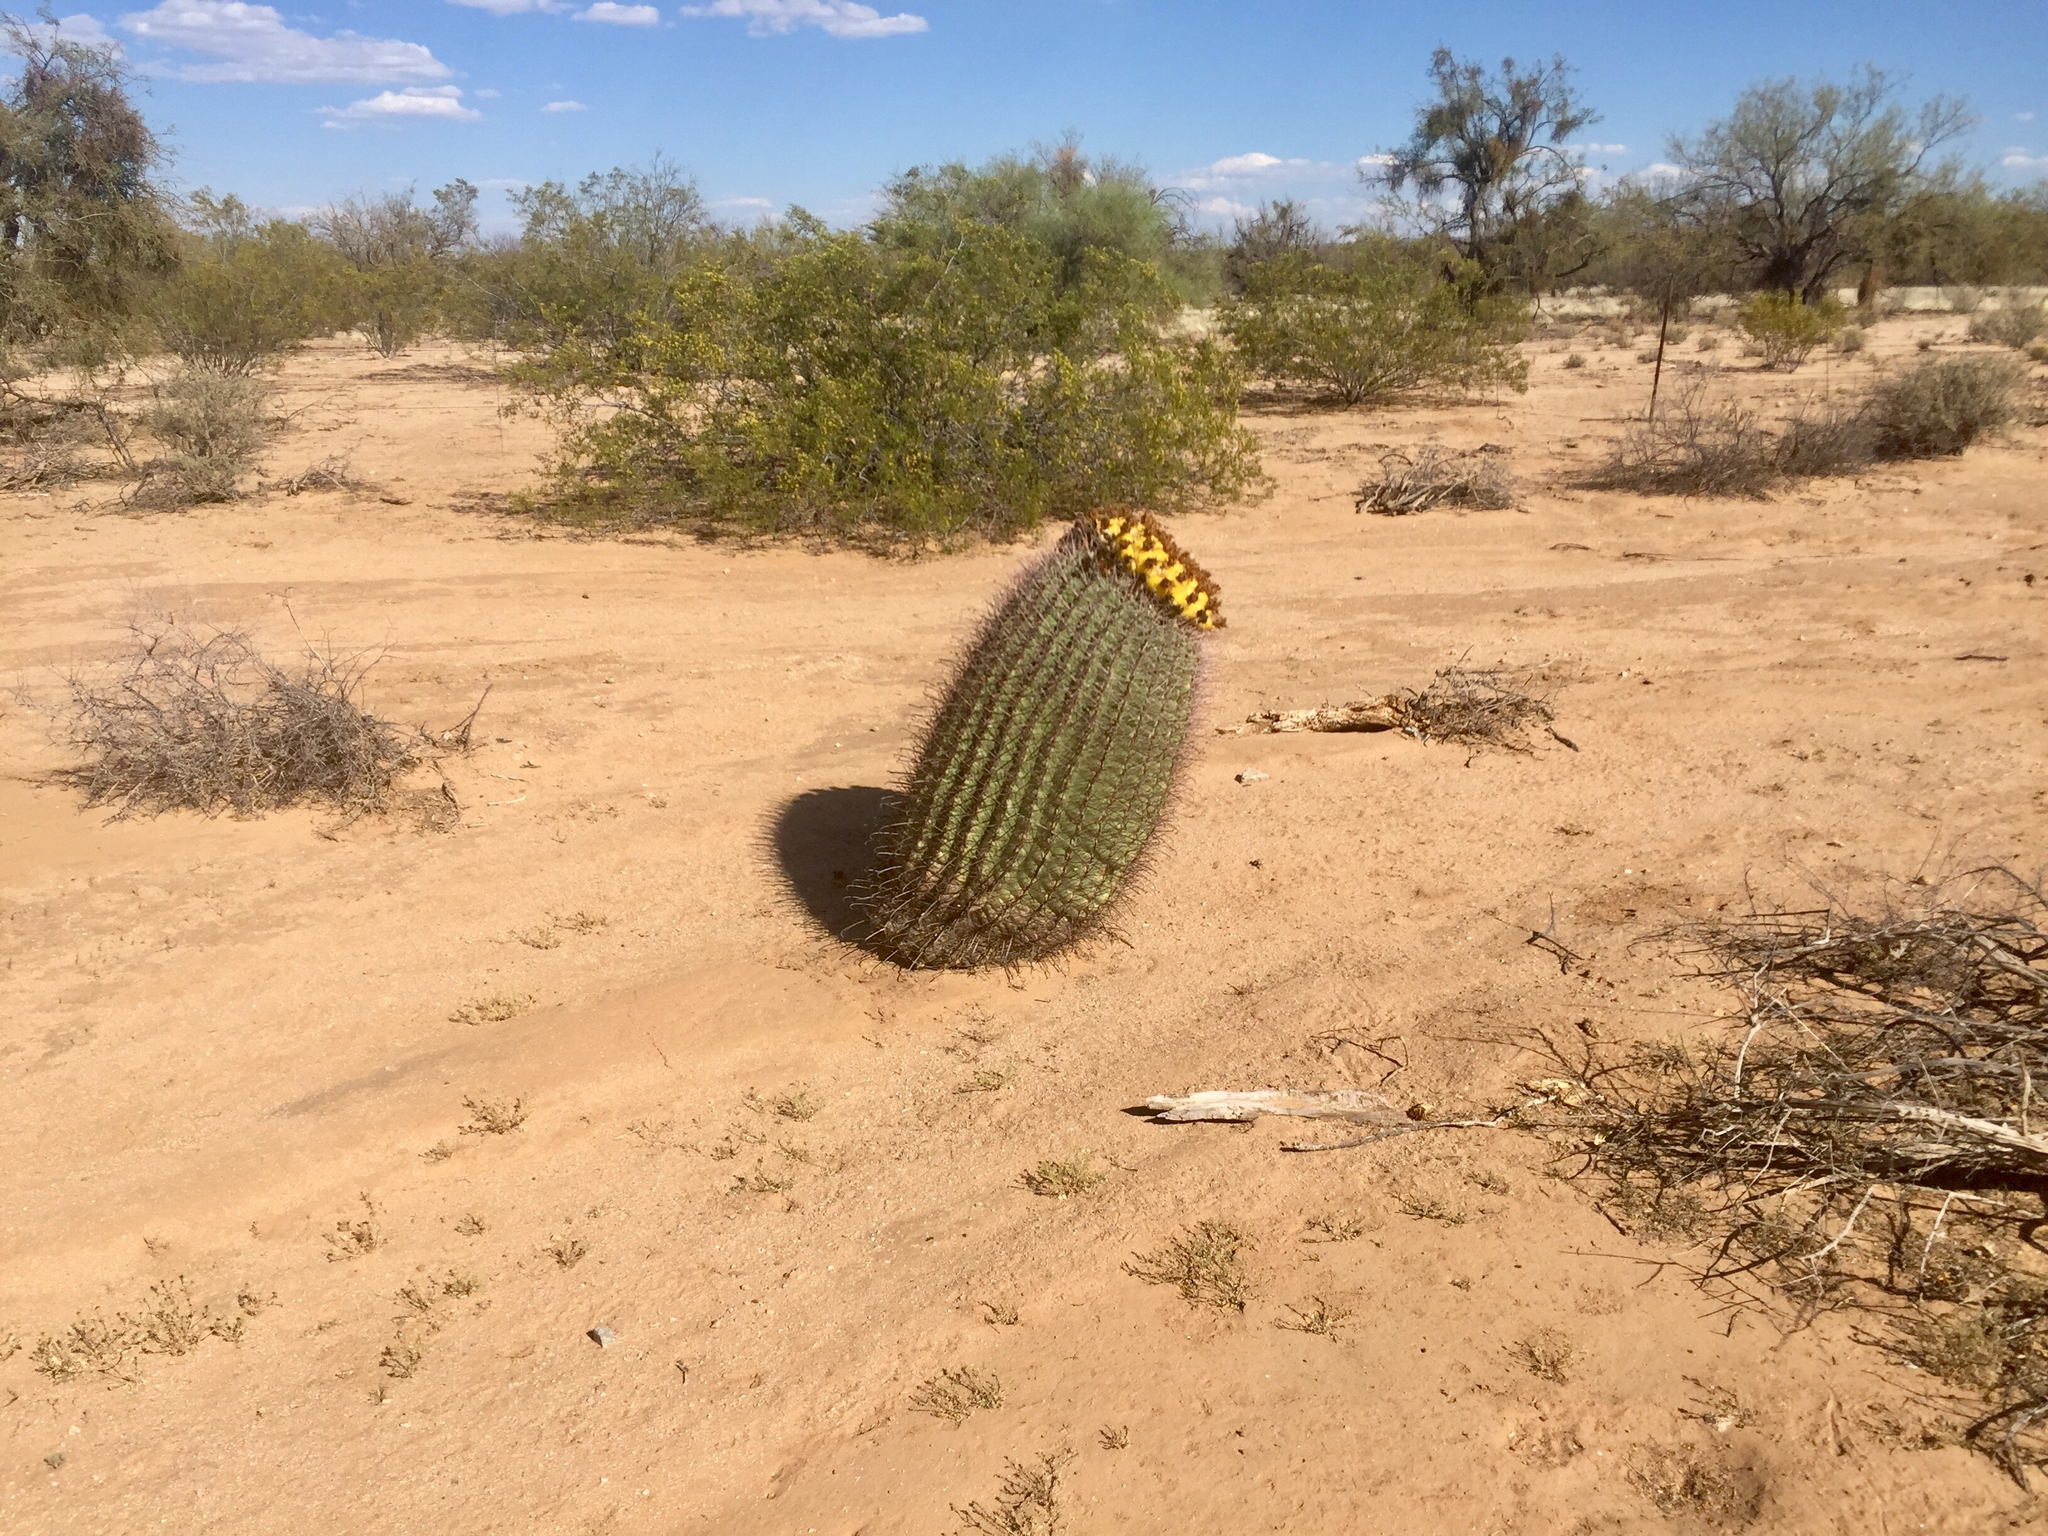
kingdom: Plantae
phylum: Tracheophyta
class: Magnoliopsida
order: Caryophyllales
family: Cactaceae
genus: Ferocactus
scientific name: Ferocactus wislizeni
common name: Candy barrel cactus
